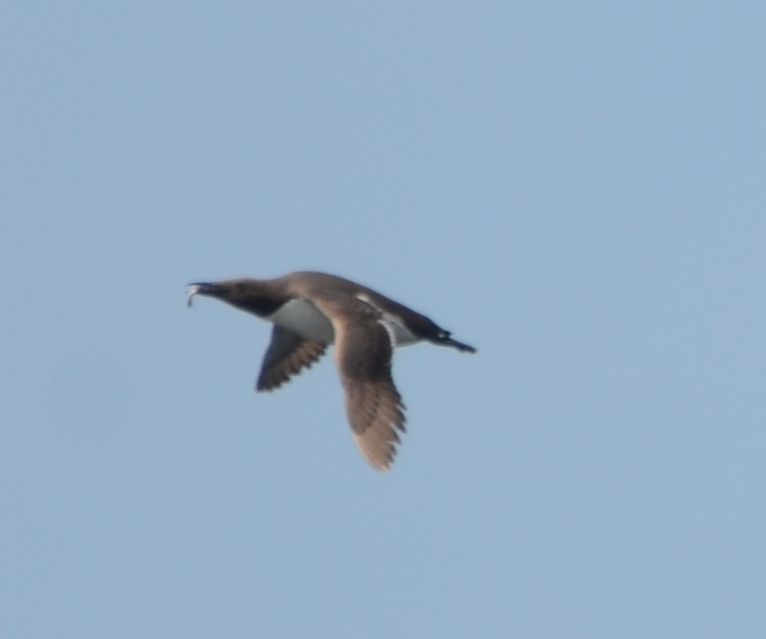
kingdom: Animalia
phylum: Chordata
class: Aves
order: Charadriiformes
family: Alcidae
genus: Uria
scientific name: Uria aalge
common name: Common murre
